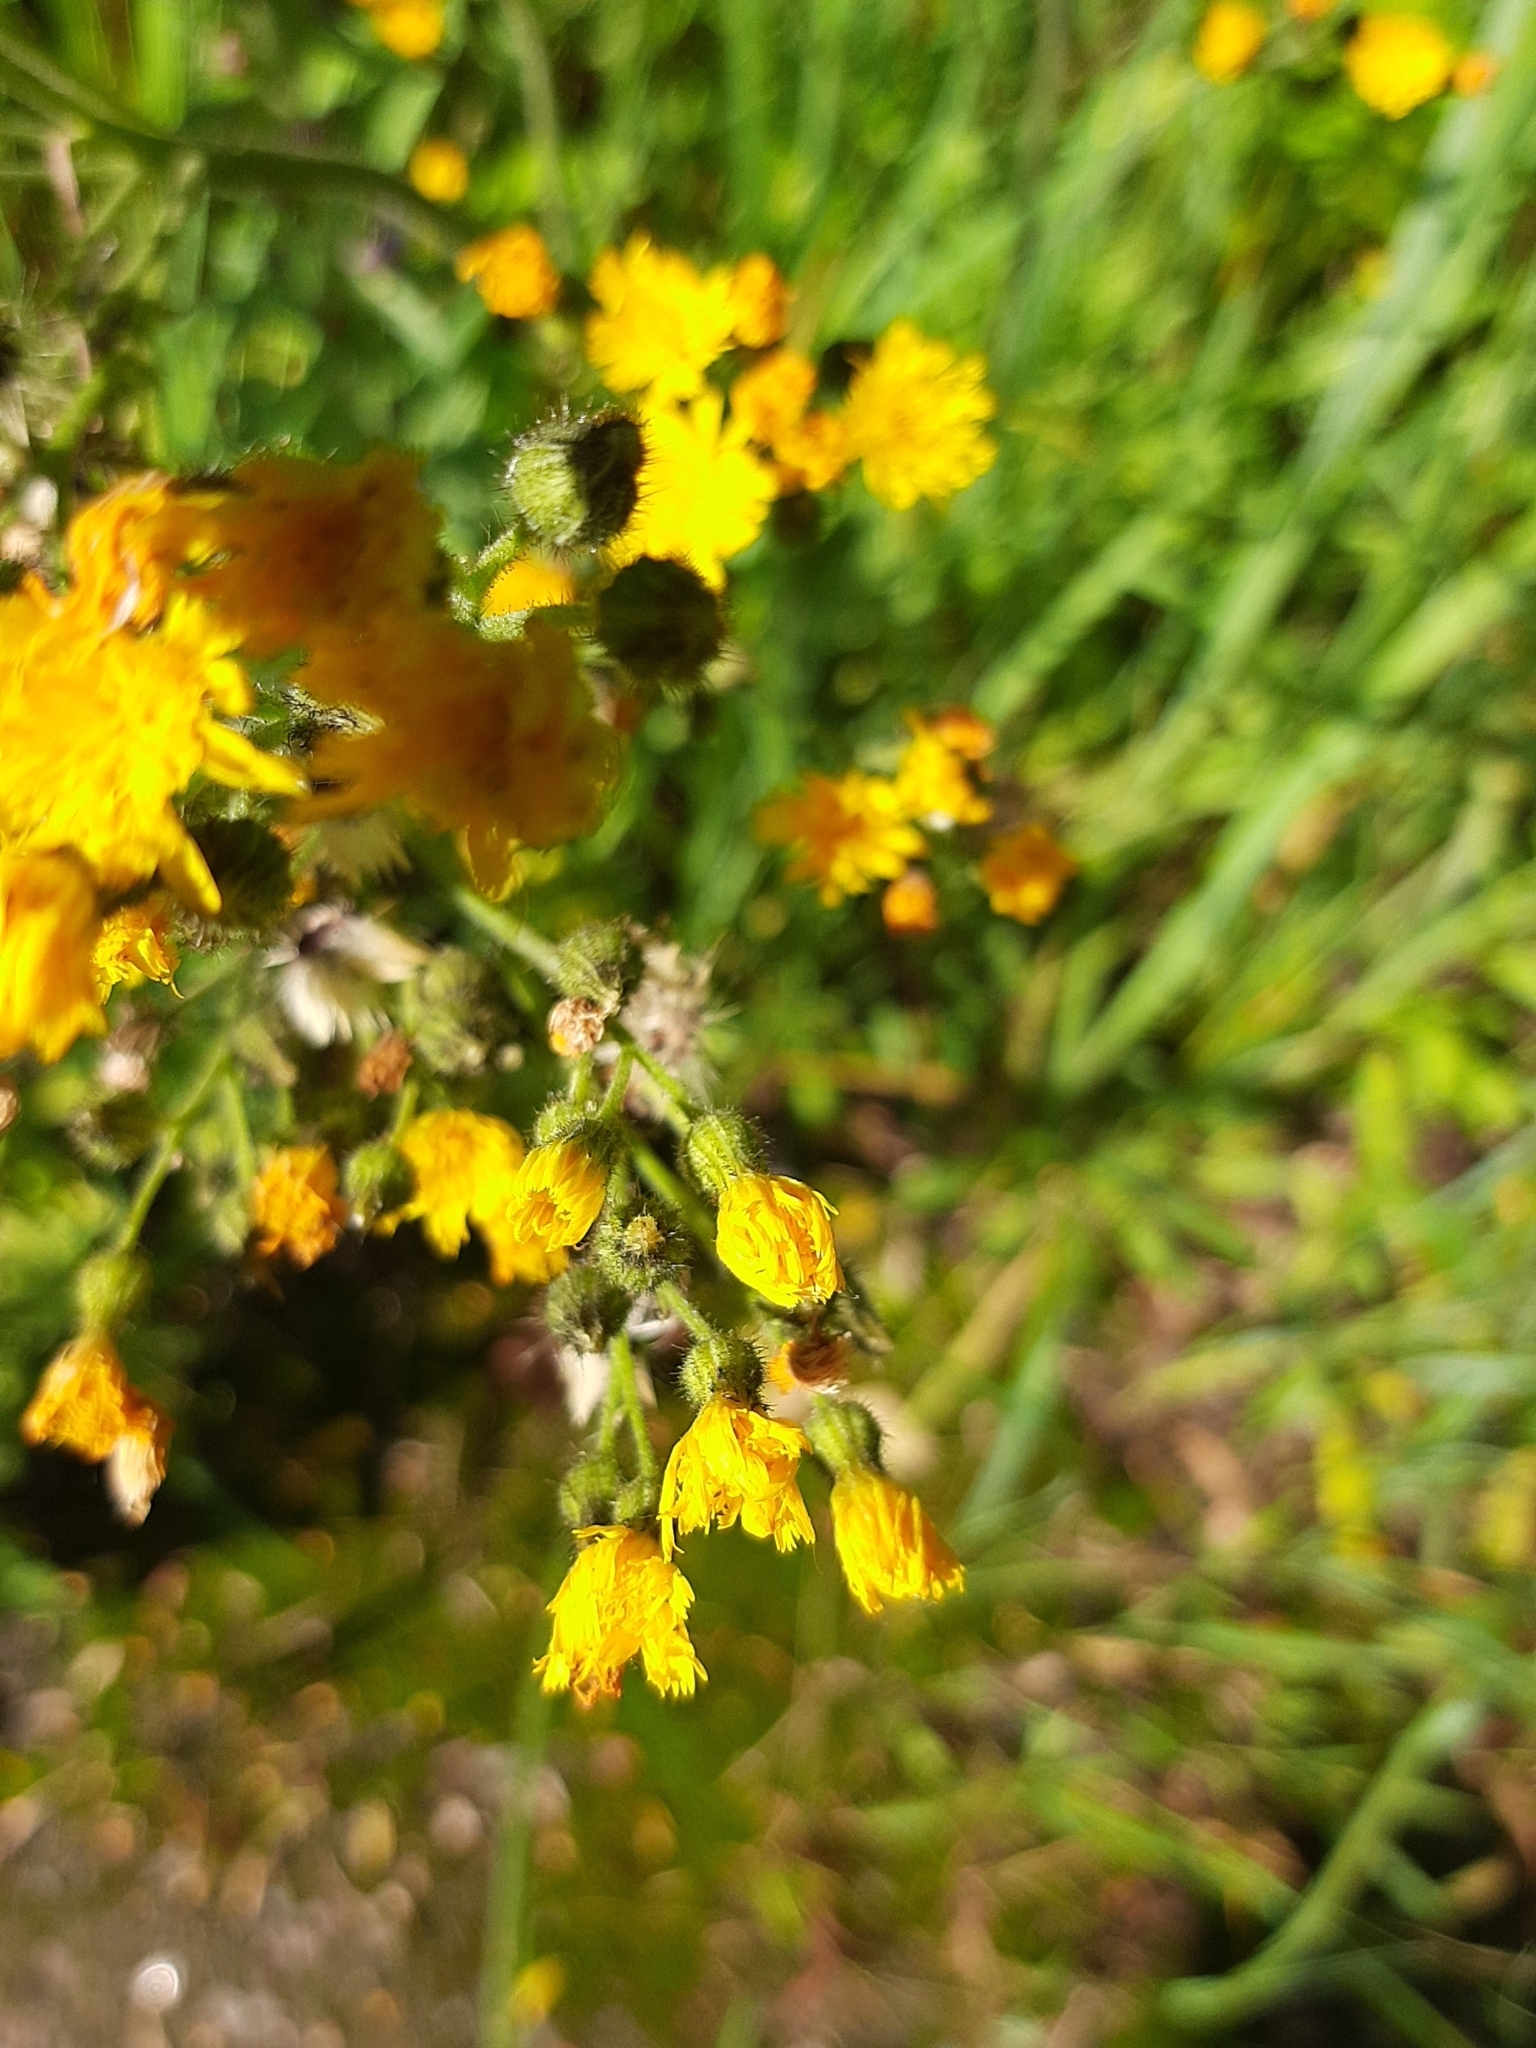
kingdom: Plantae
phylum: Tracheophyta
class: Magnoliopsida
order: Asterales
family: Asteraceae
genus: Pilosella
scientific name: Pilosella
